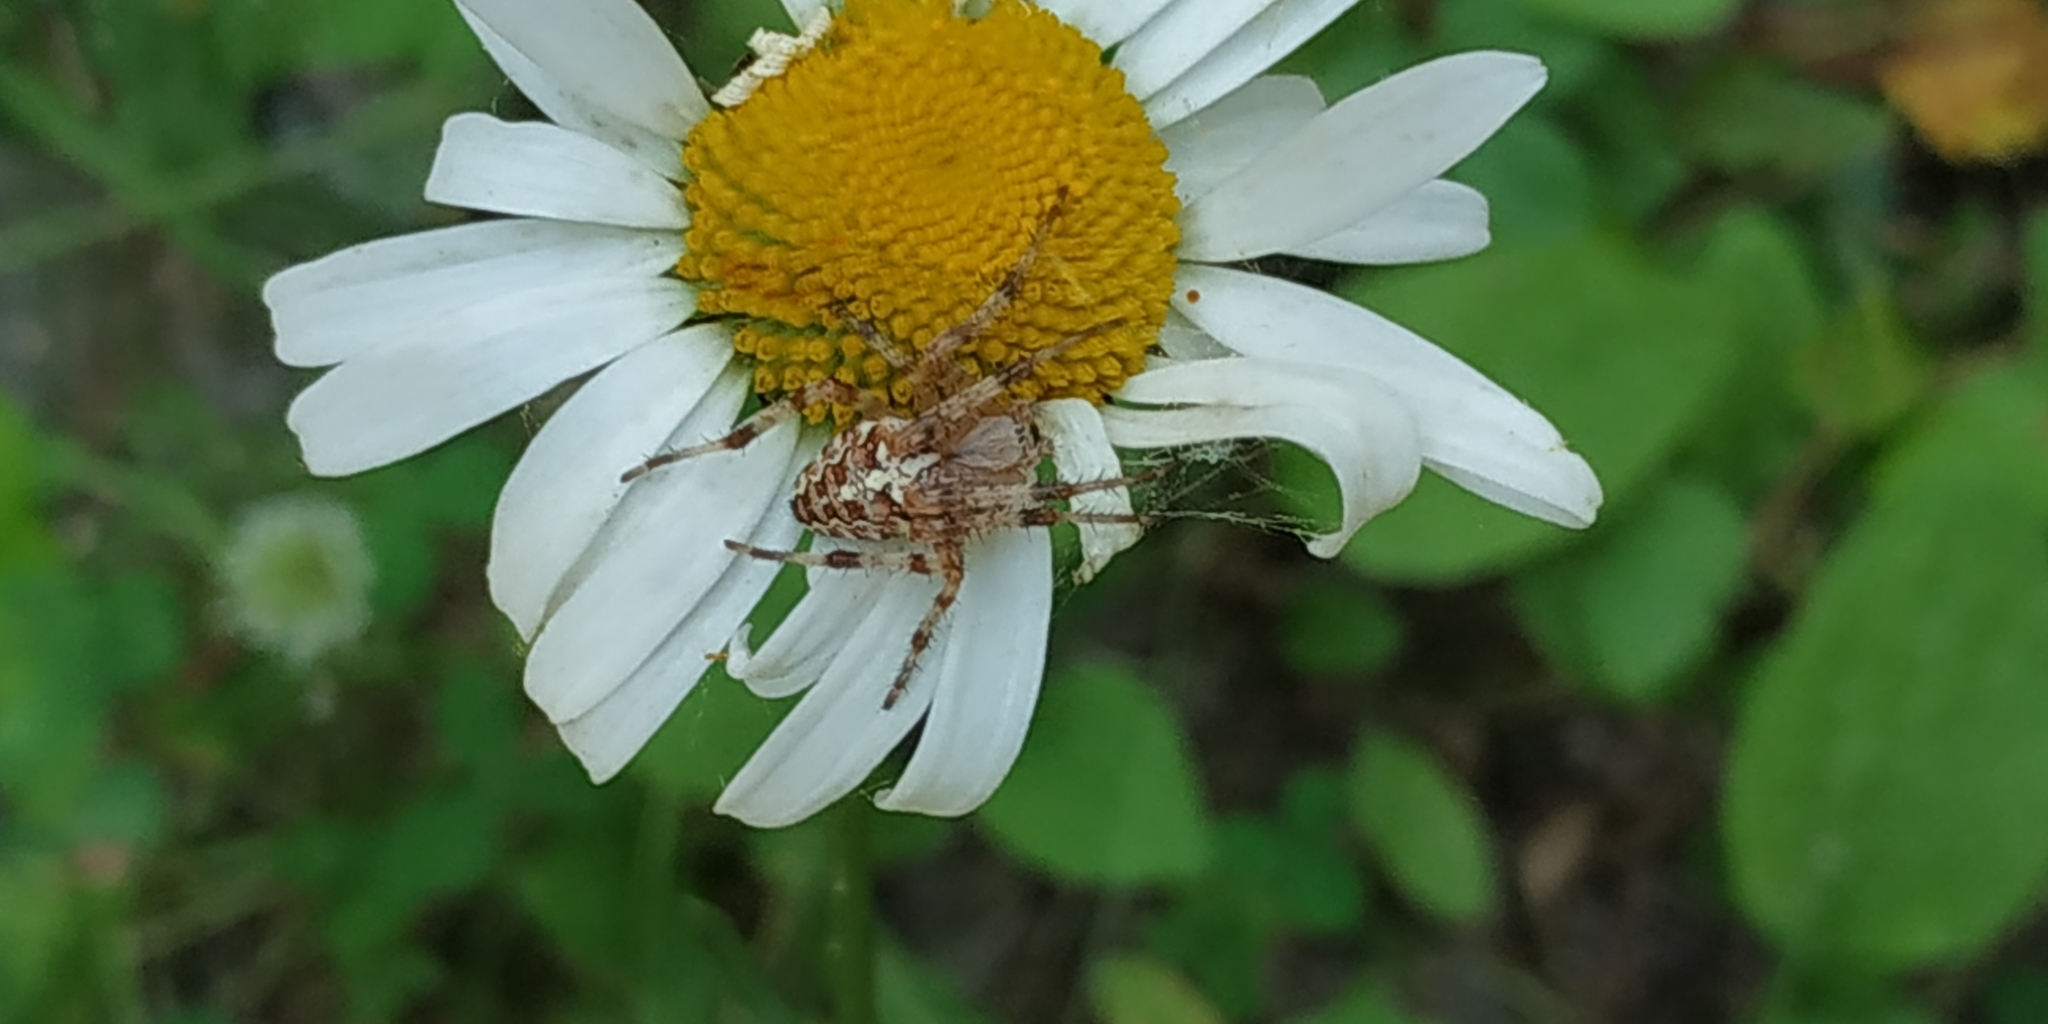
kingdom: Animalia
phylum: Arthropoda
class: Arachnida
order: Araneae
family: Araneidae
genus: Araneus
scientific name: Araneus diadematus
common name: Cross orbweaver
